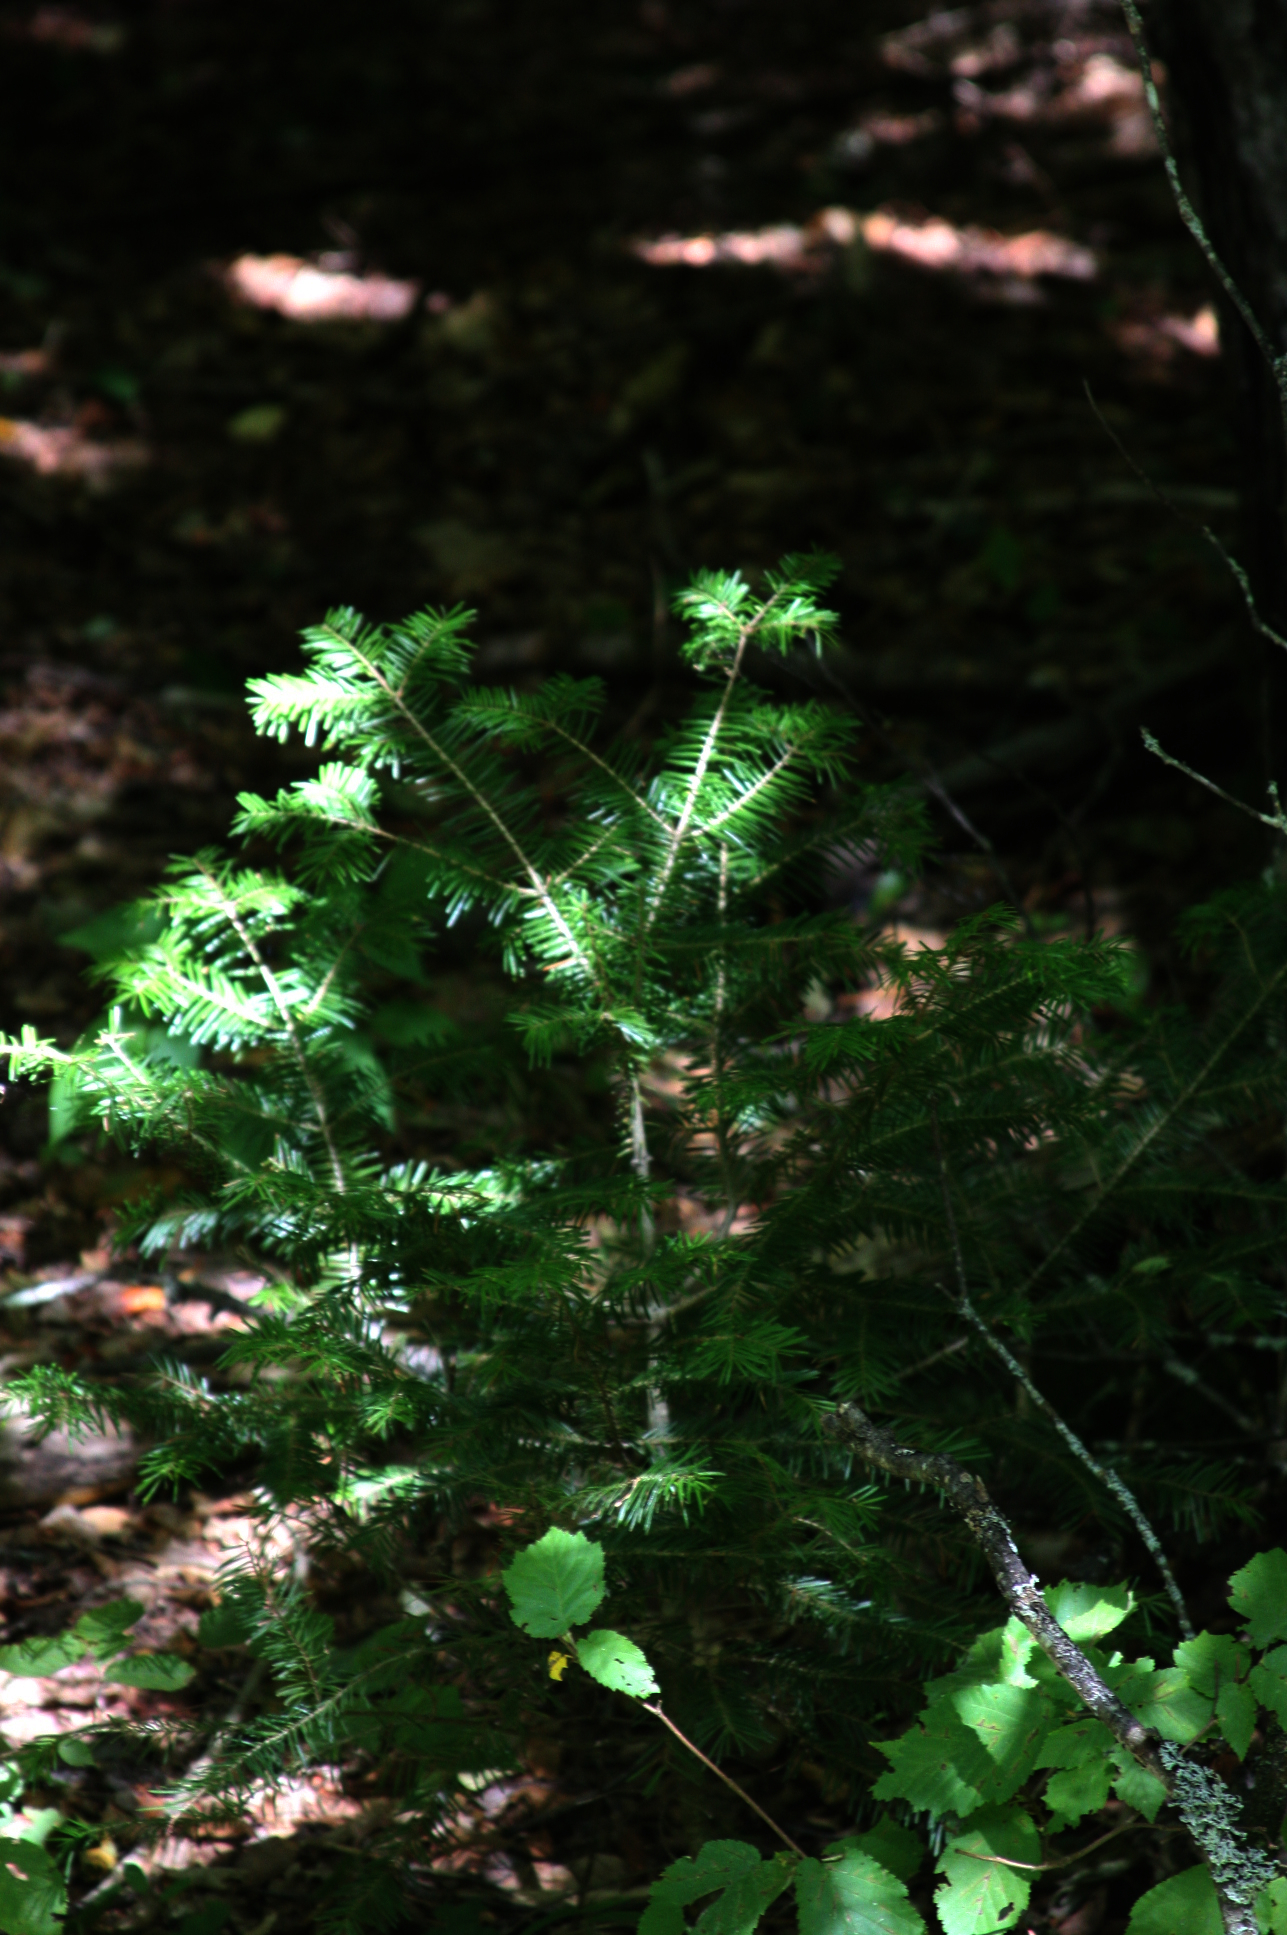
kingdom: Plantae
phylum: Tracheophyta
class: Pinopsida
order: Pinales
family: Pinaceae
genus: Abies
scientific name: Abies balsamea
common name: Balsam fir
